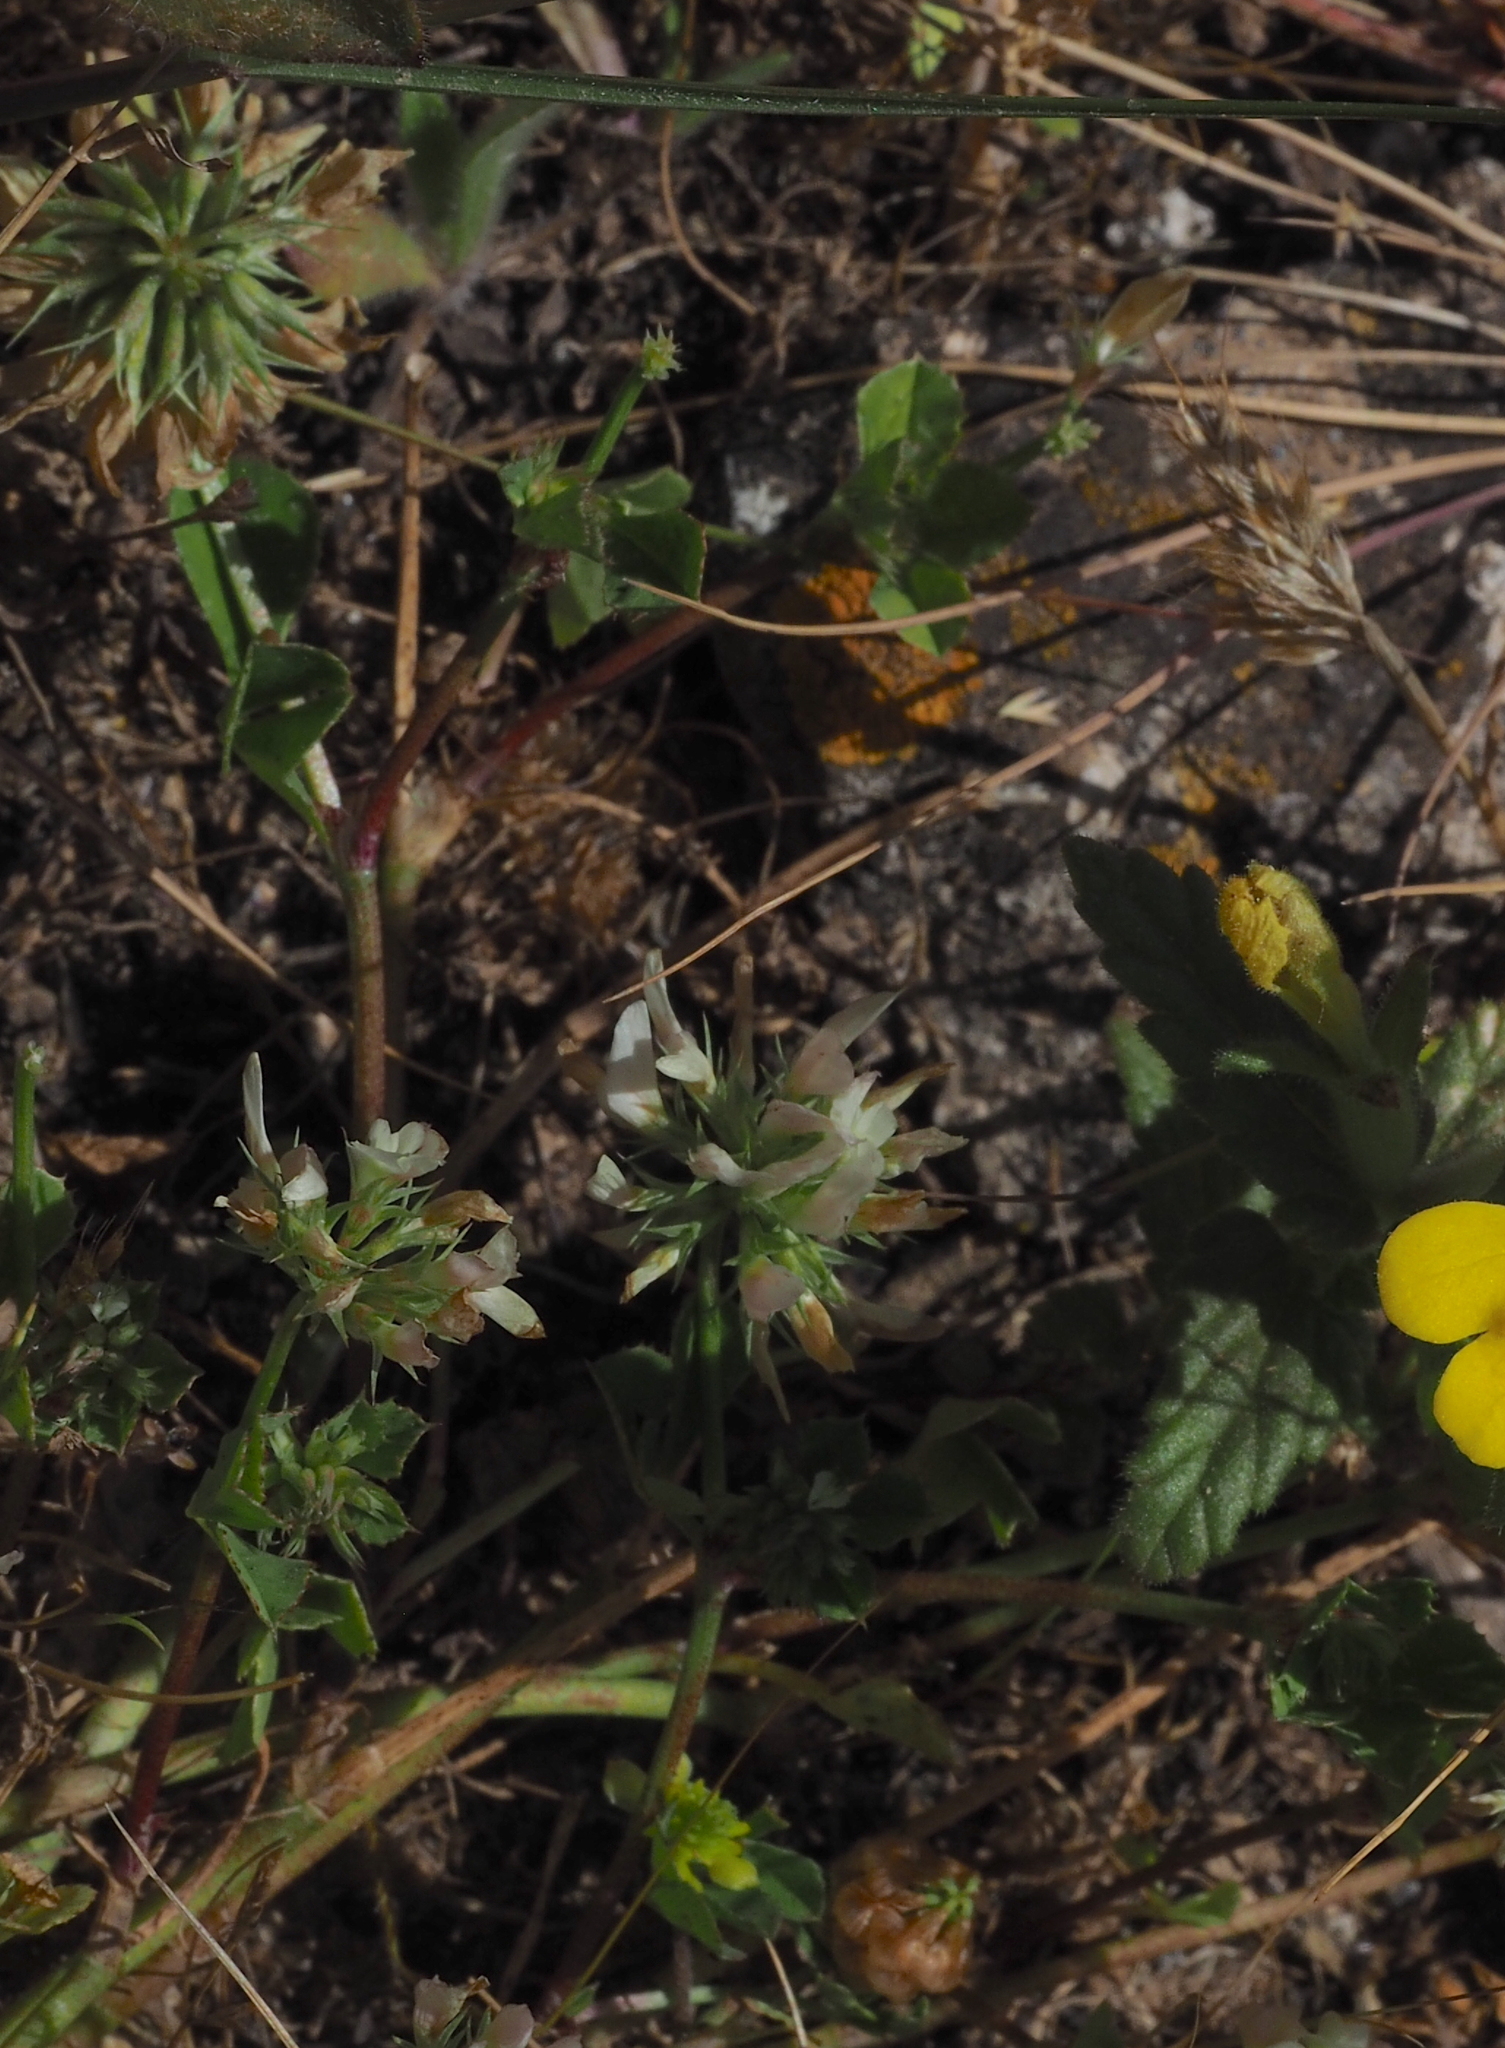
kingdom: Plantae
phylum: Tracheophyta
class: Magnoliopsida
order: Fabales
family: Fabaceae
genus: Trifolium
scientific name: Trifolium nigrescens
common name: Small white clover
